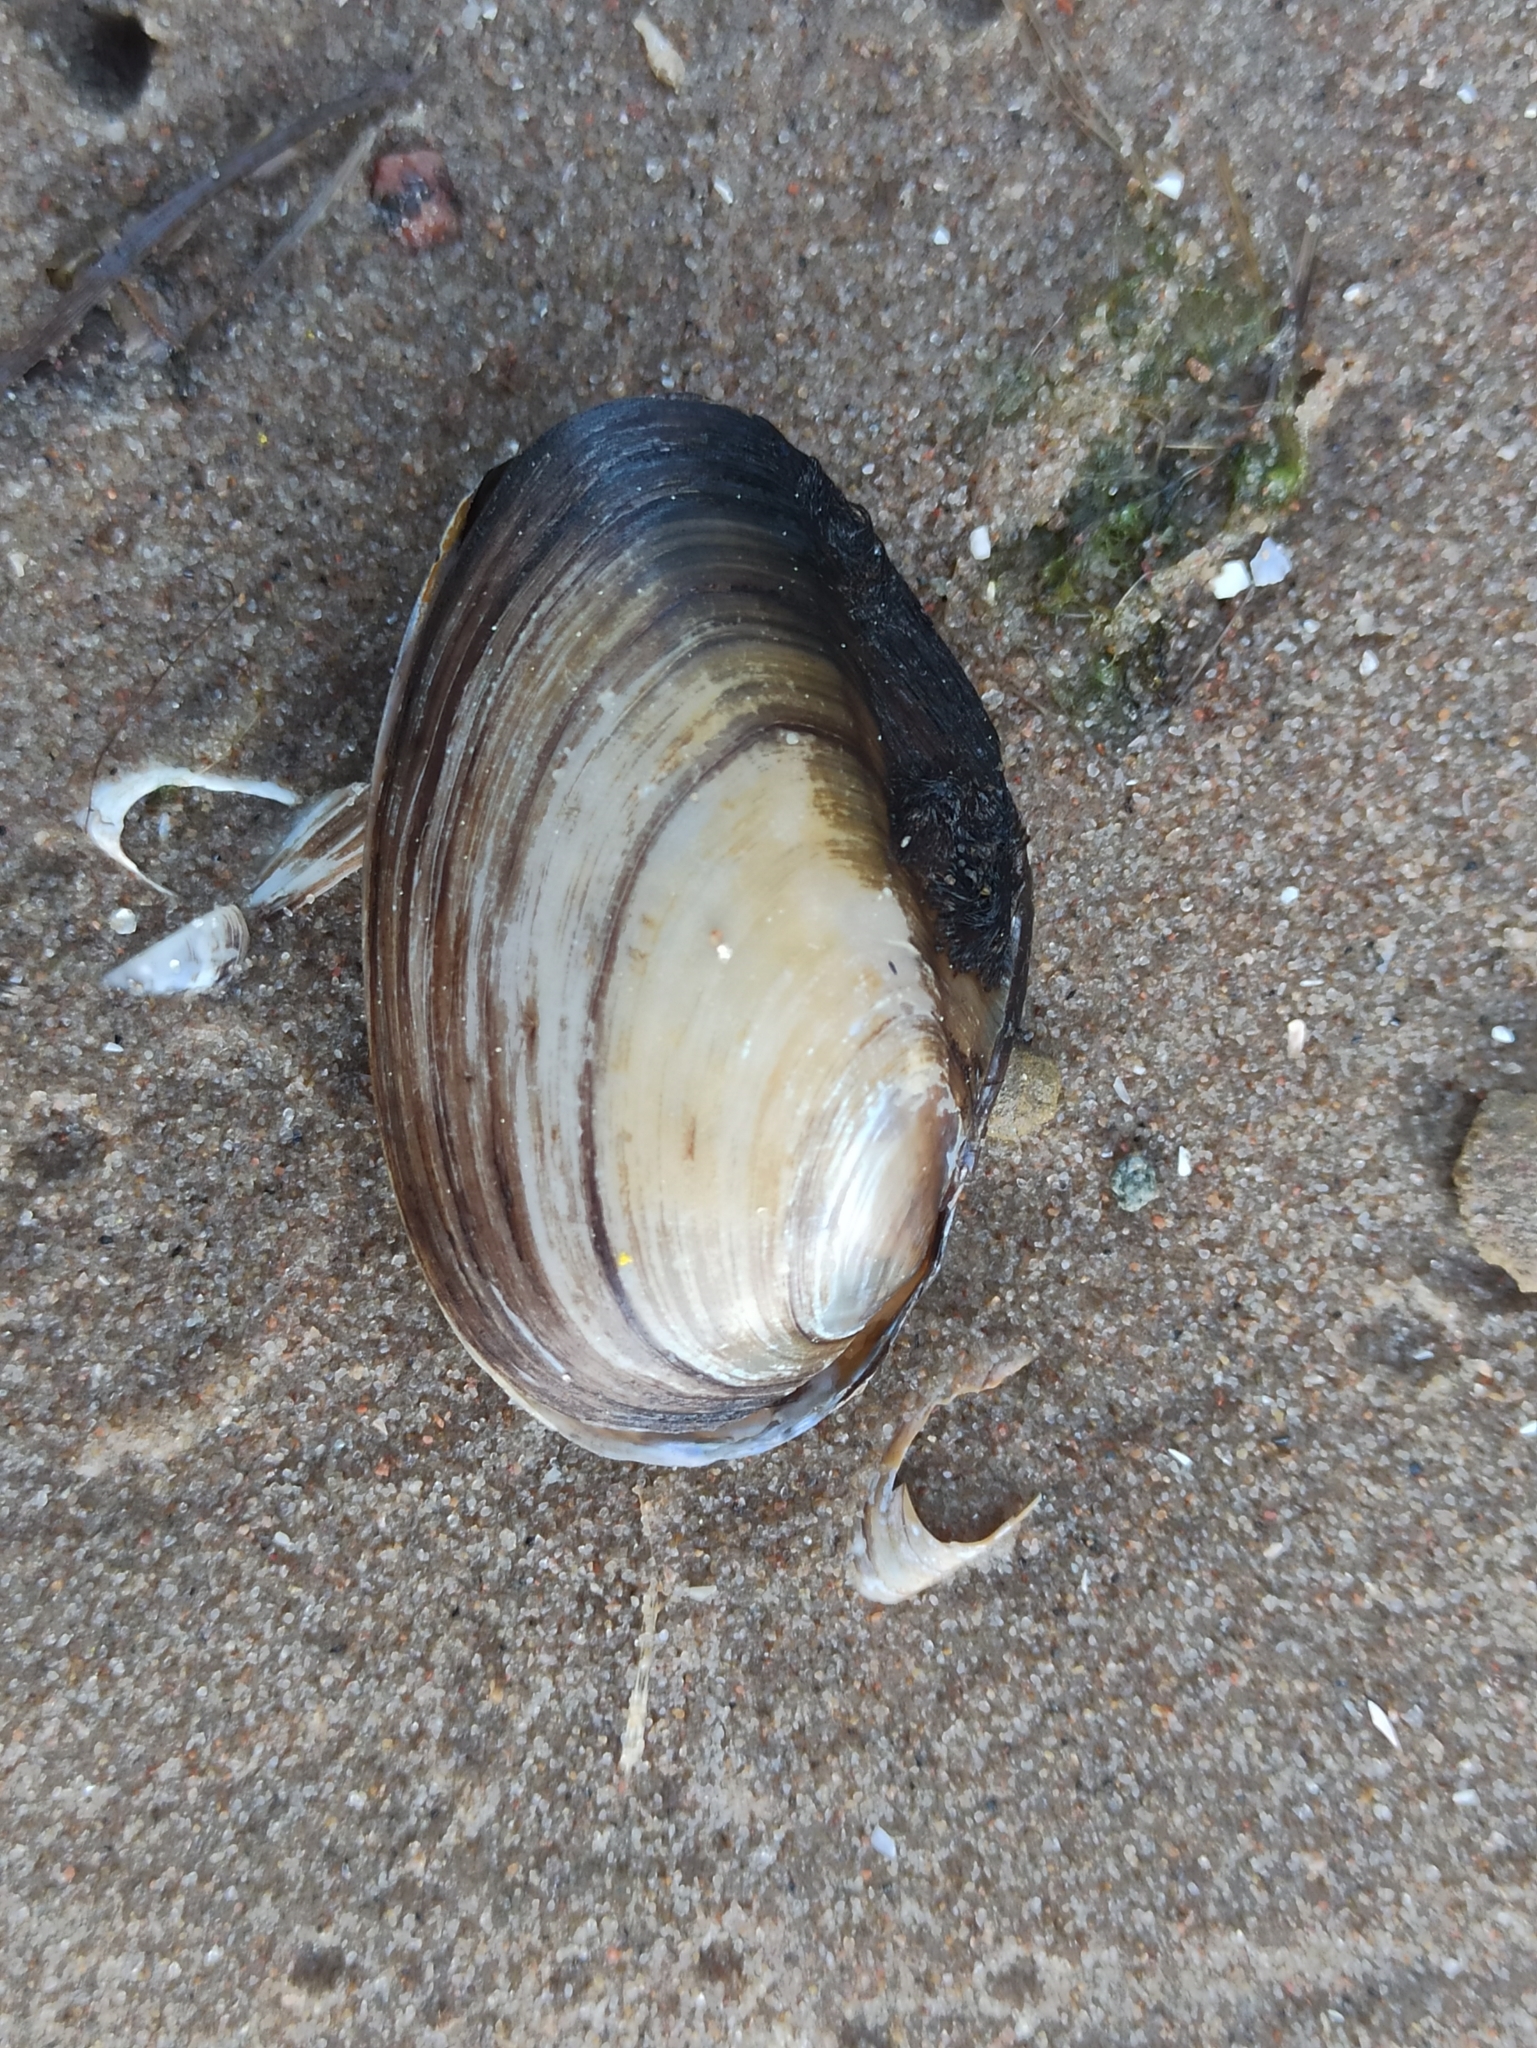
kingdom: Animalia
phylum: Mollusca
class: Bivalvia
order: Unionida
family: Unionidae
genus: Anodonta
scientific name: Anodonta anatina
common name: Duck mussel
